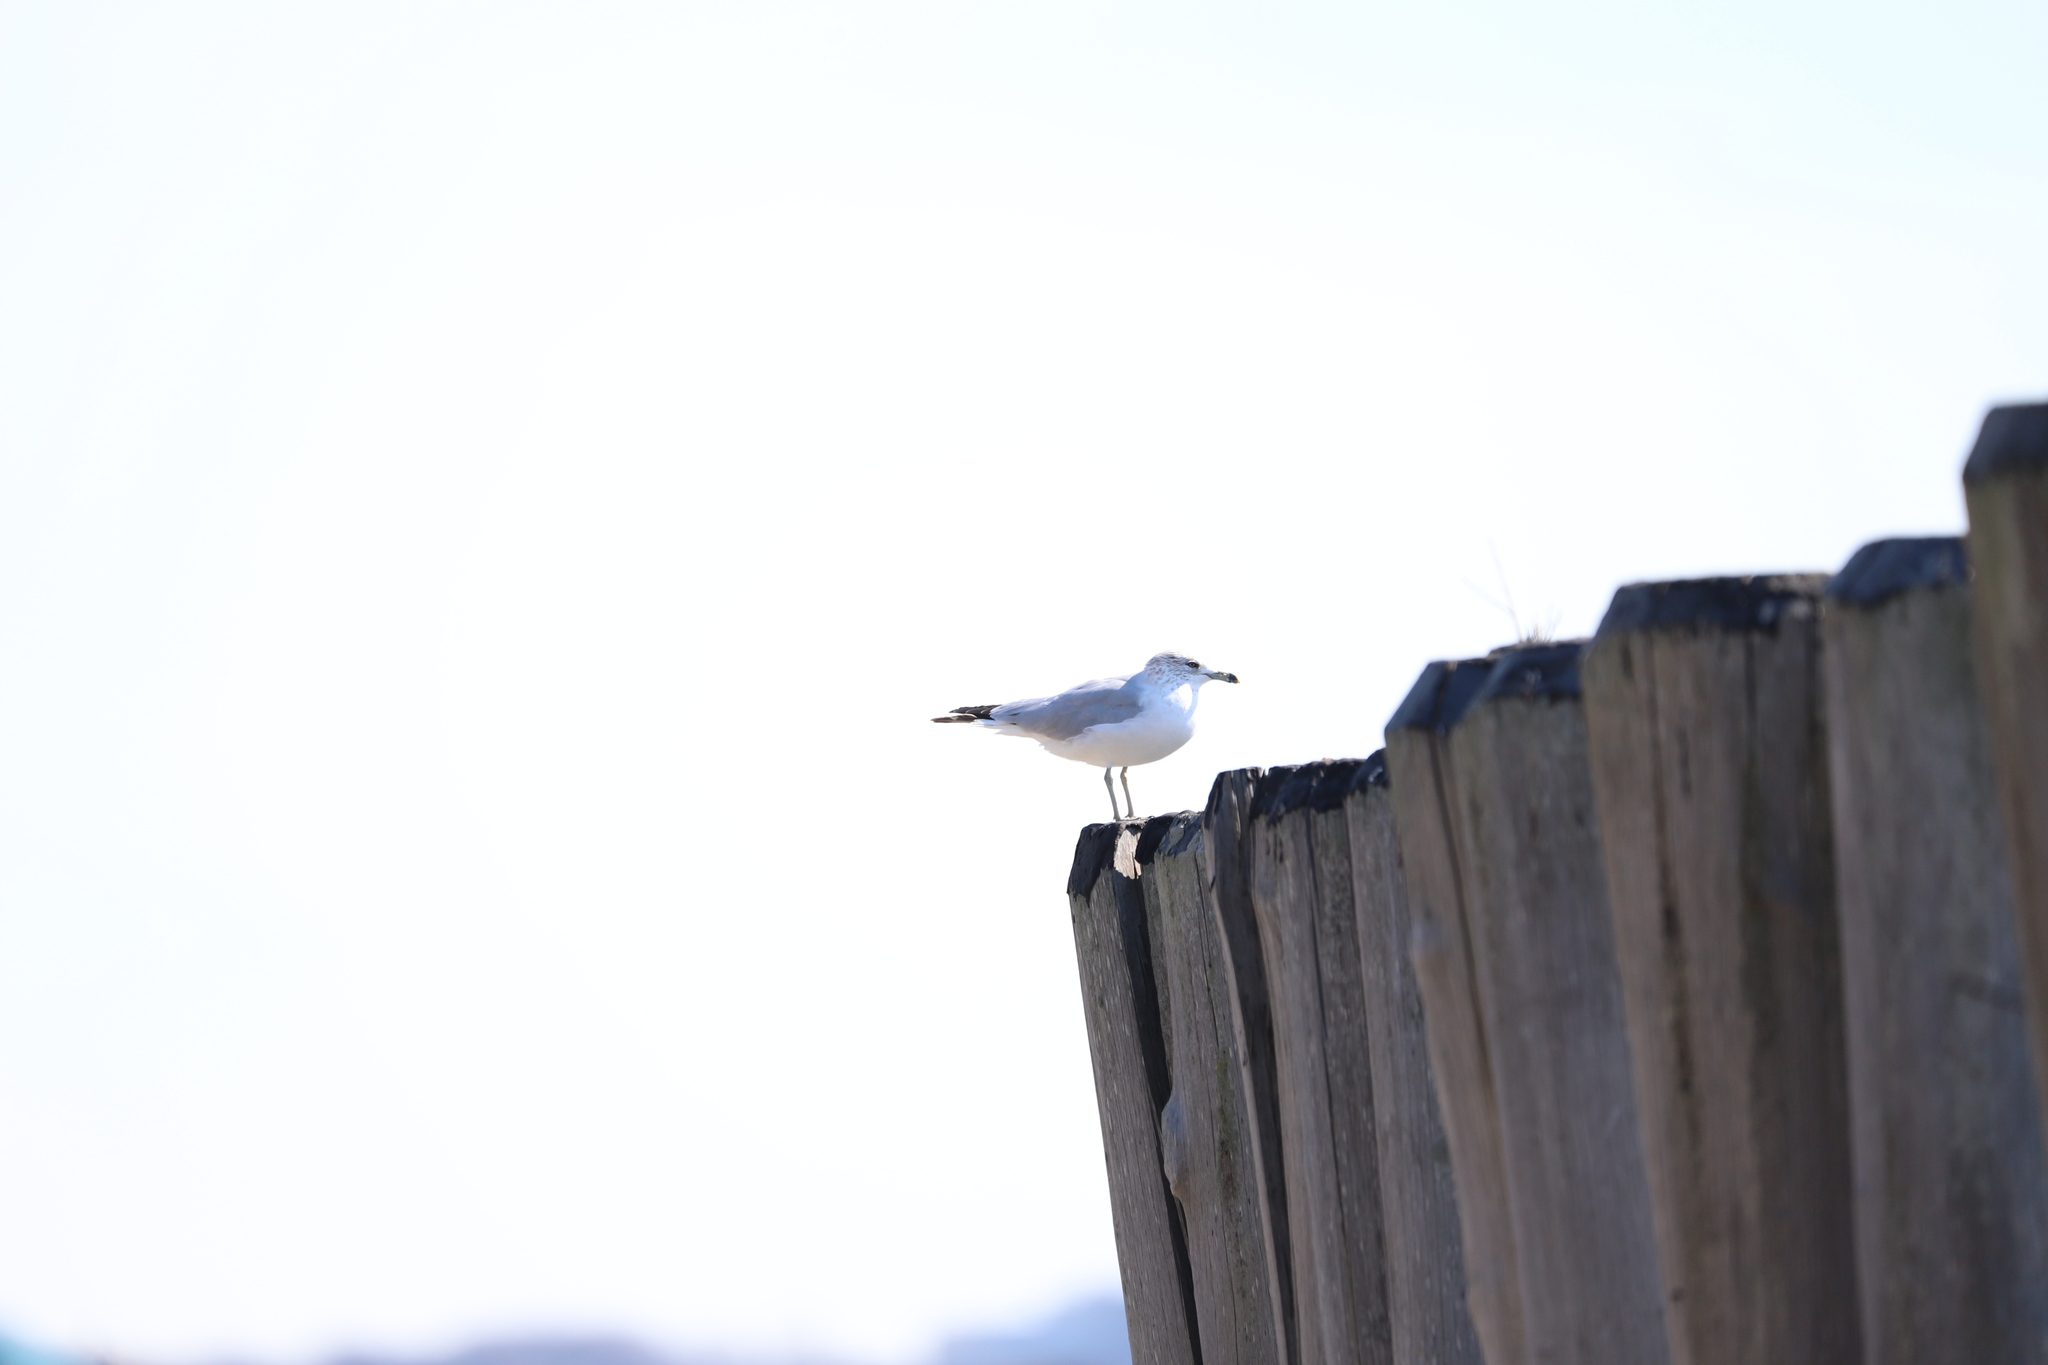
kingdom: Animalia
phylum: Chordata
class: Aves
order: Charadriiformes
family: Laridae
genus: Larus
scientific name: Larus delawarensis
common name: Ring-billed gull
